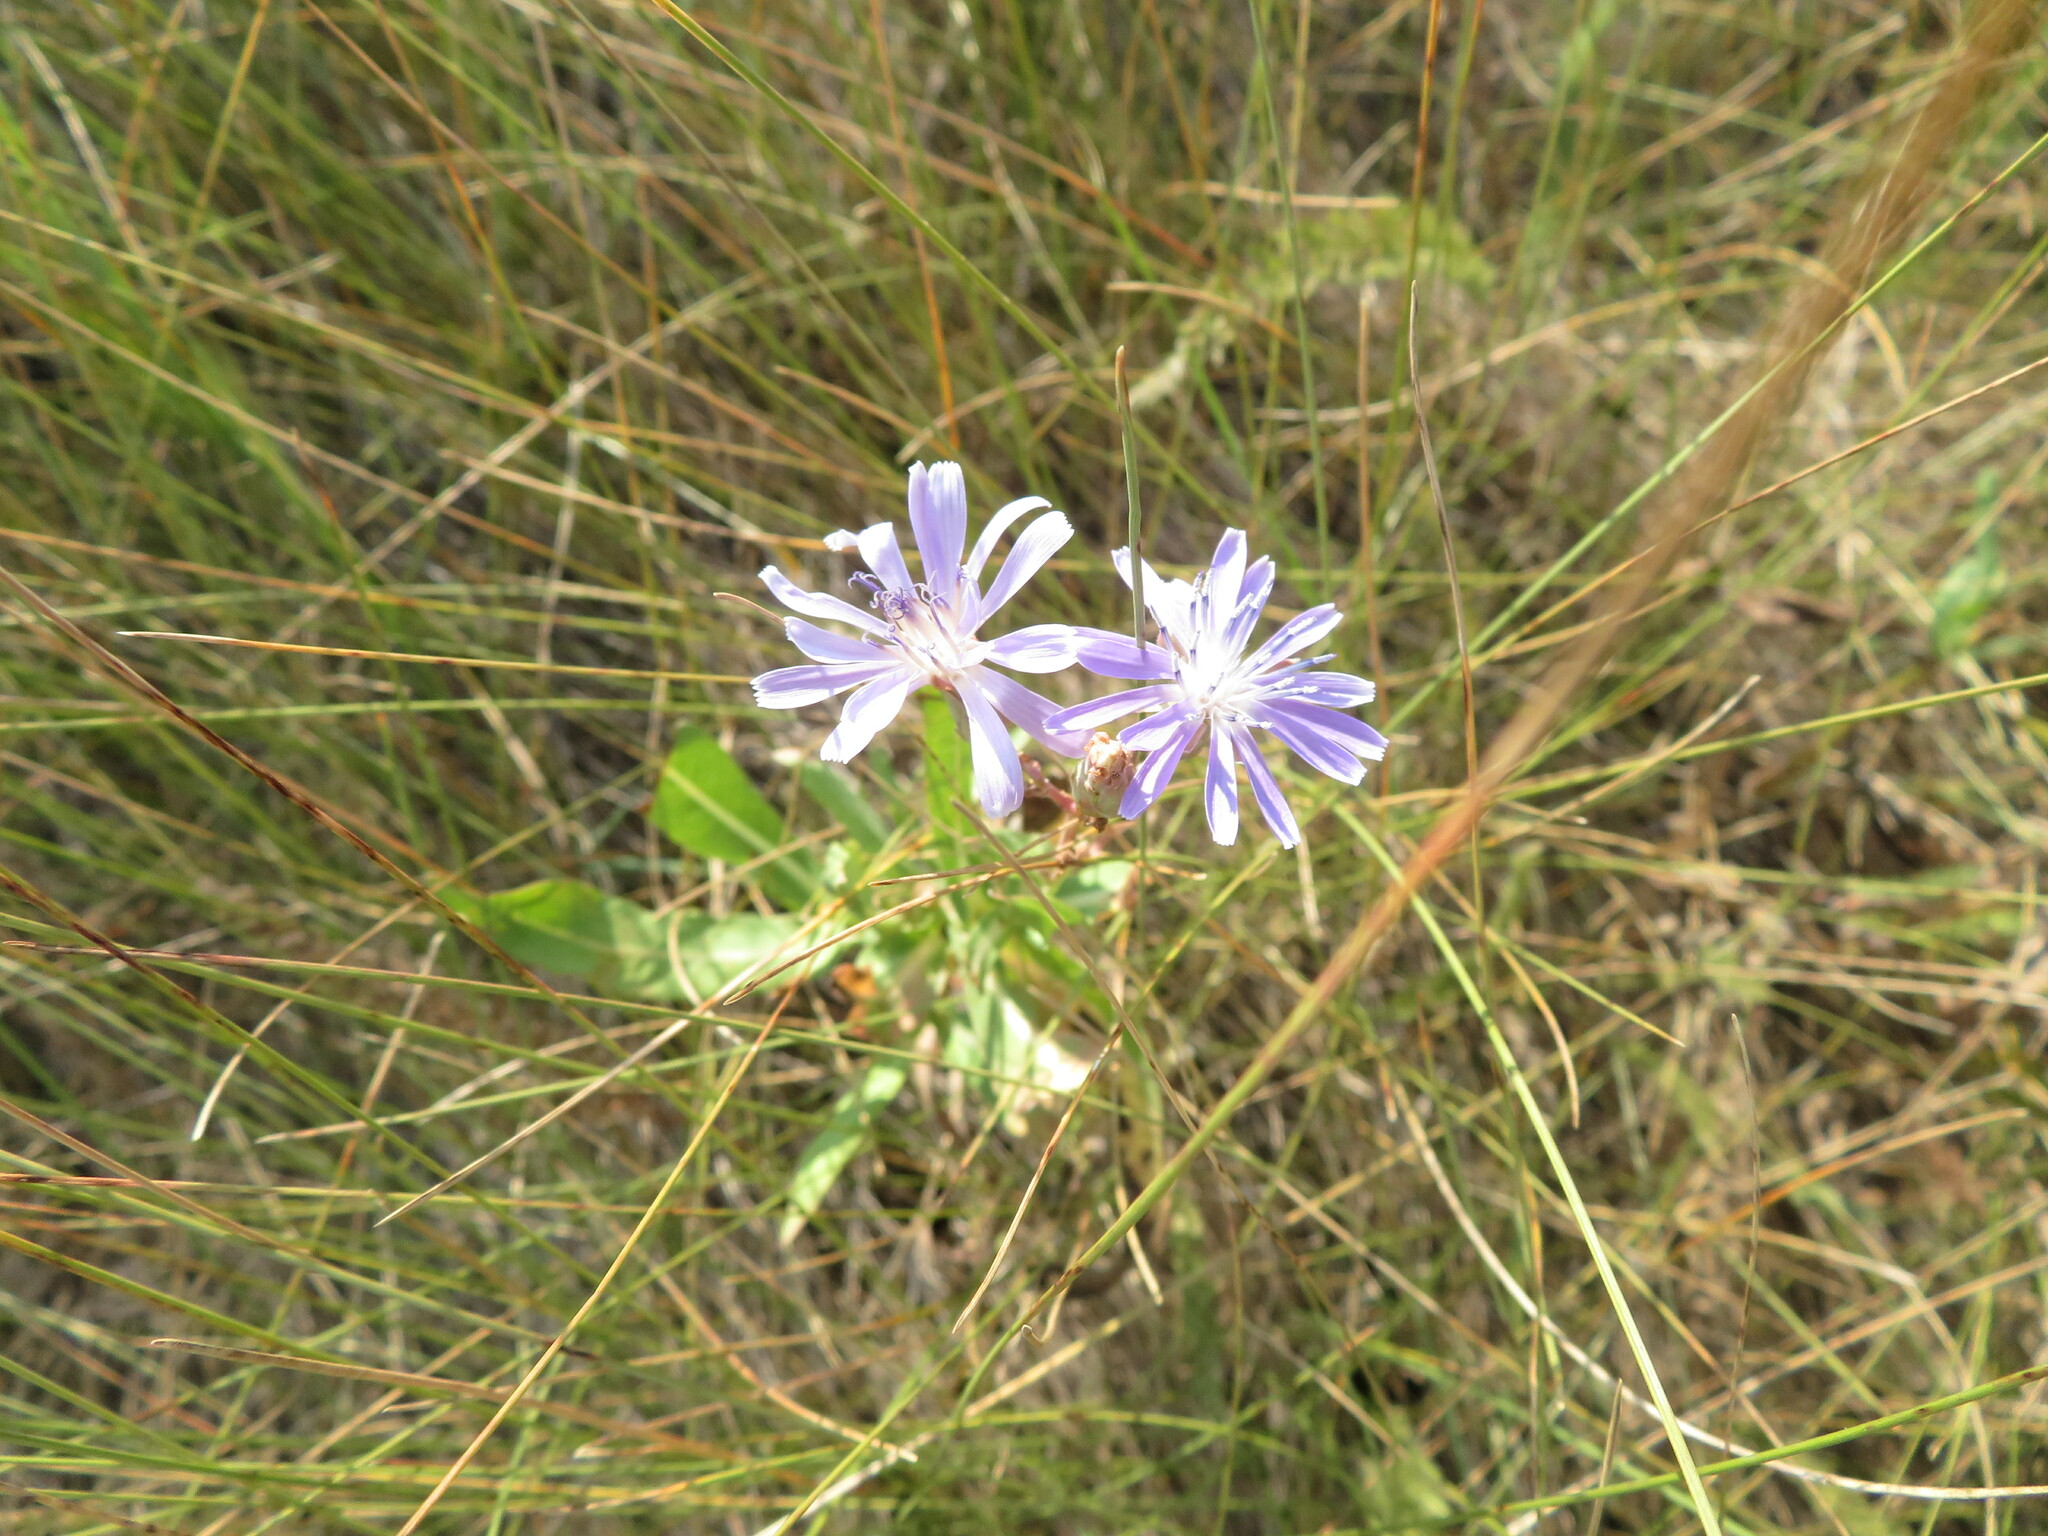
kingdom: Plantae
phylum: Tracheophyta
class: Magnoliopsida
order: Asterales
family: Asteraceae
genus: Lactuca
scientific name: Lactuca pulchella
